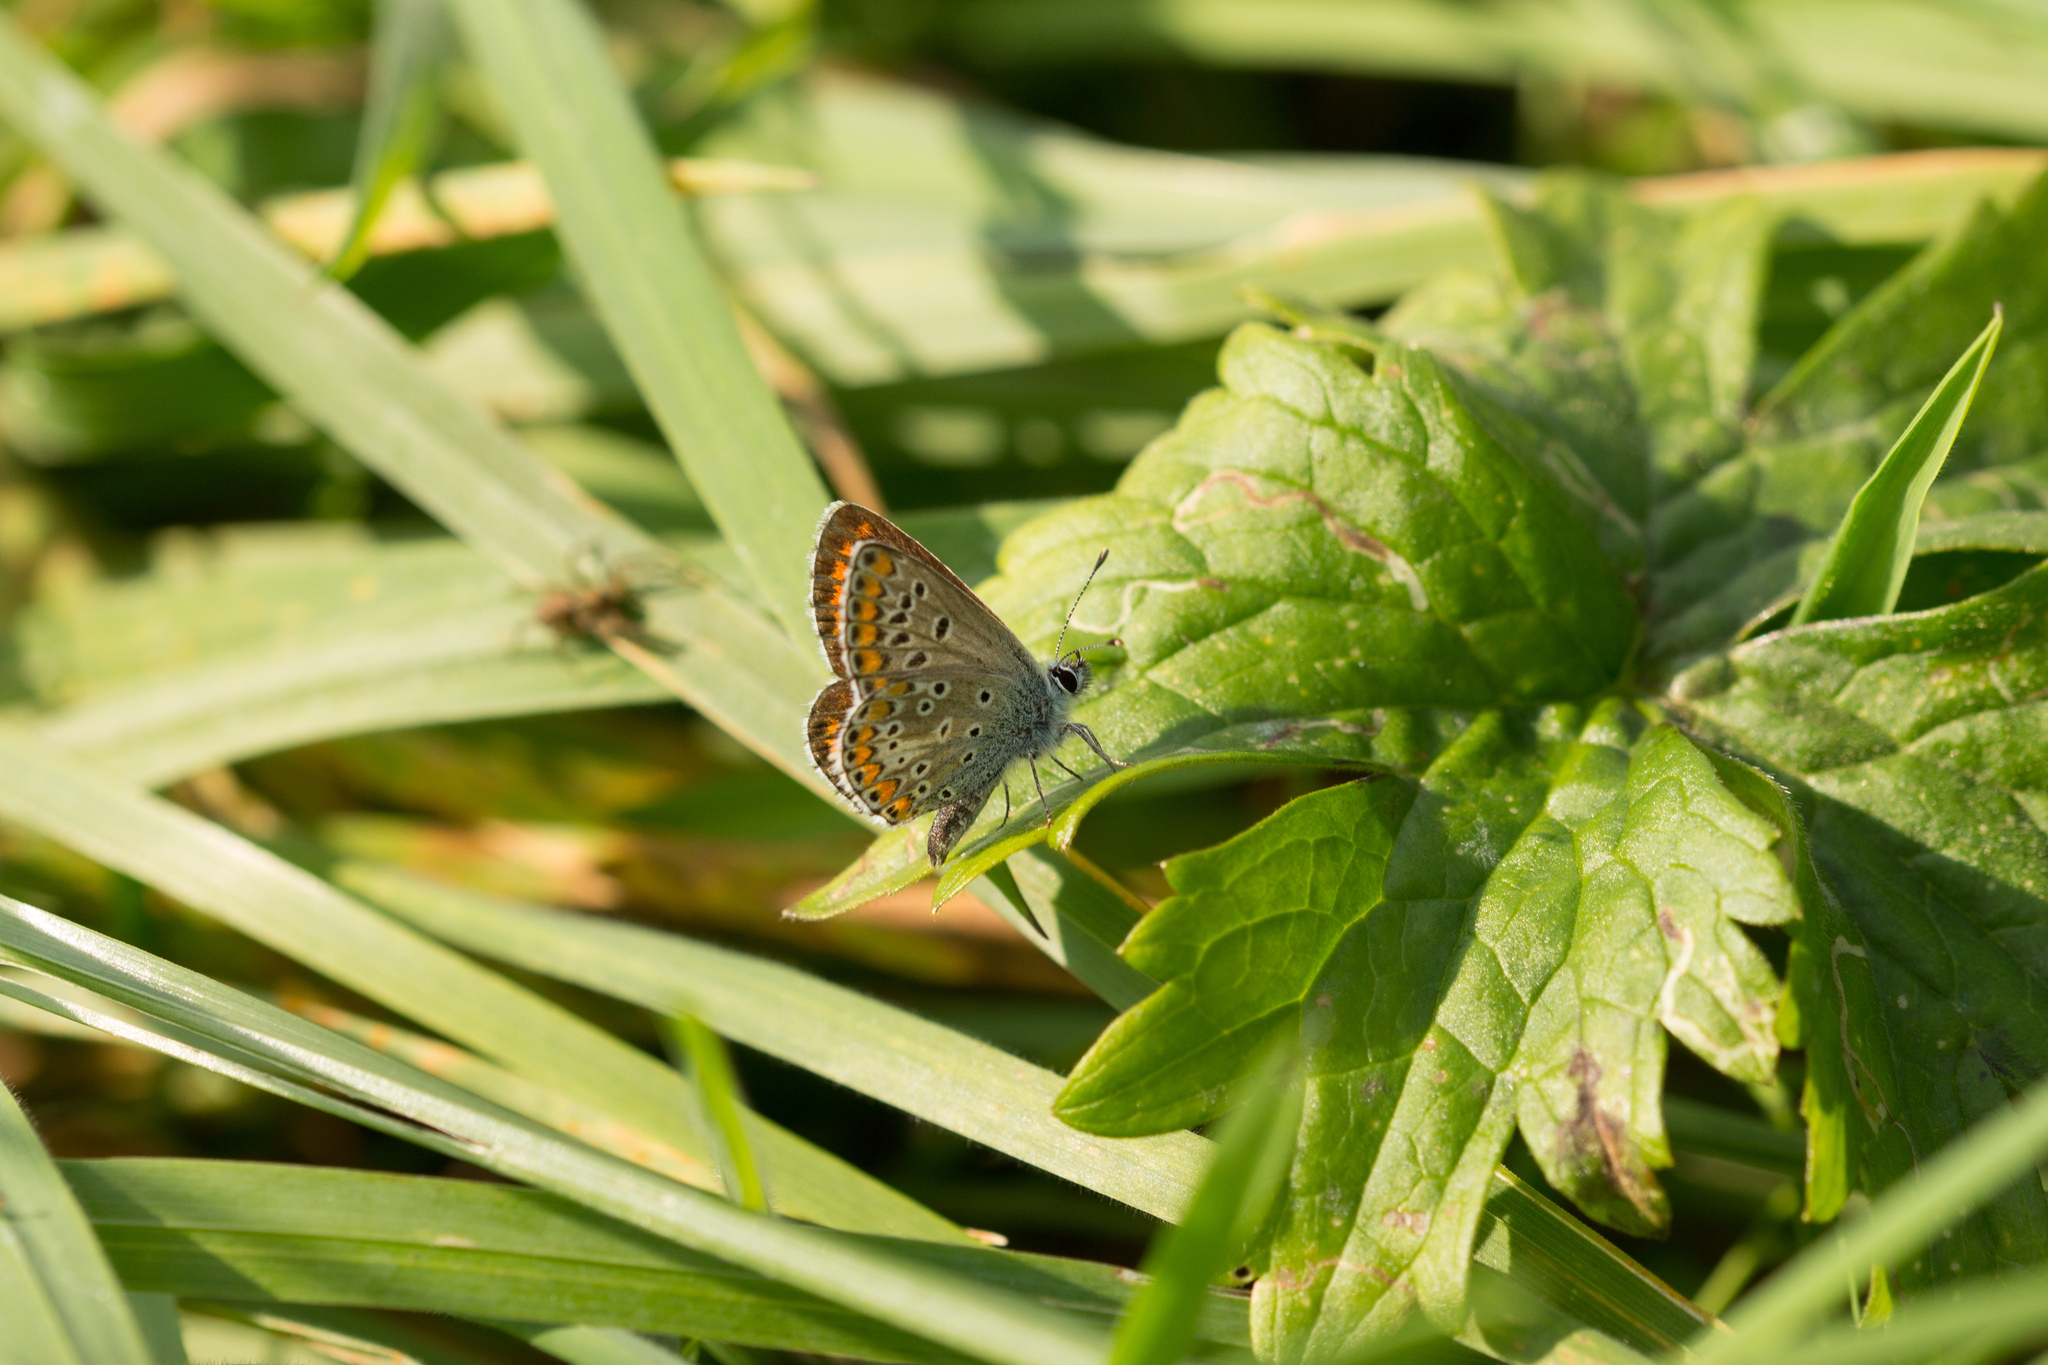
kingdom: Animalia
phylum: Arthropoda
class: Insecta
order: Lepidoptera
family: Lycaenidae
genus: Aricia
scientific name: Aricia agestis
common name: Brown argus
